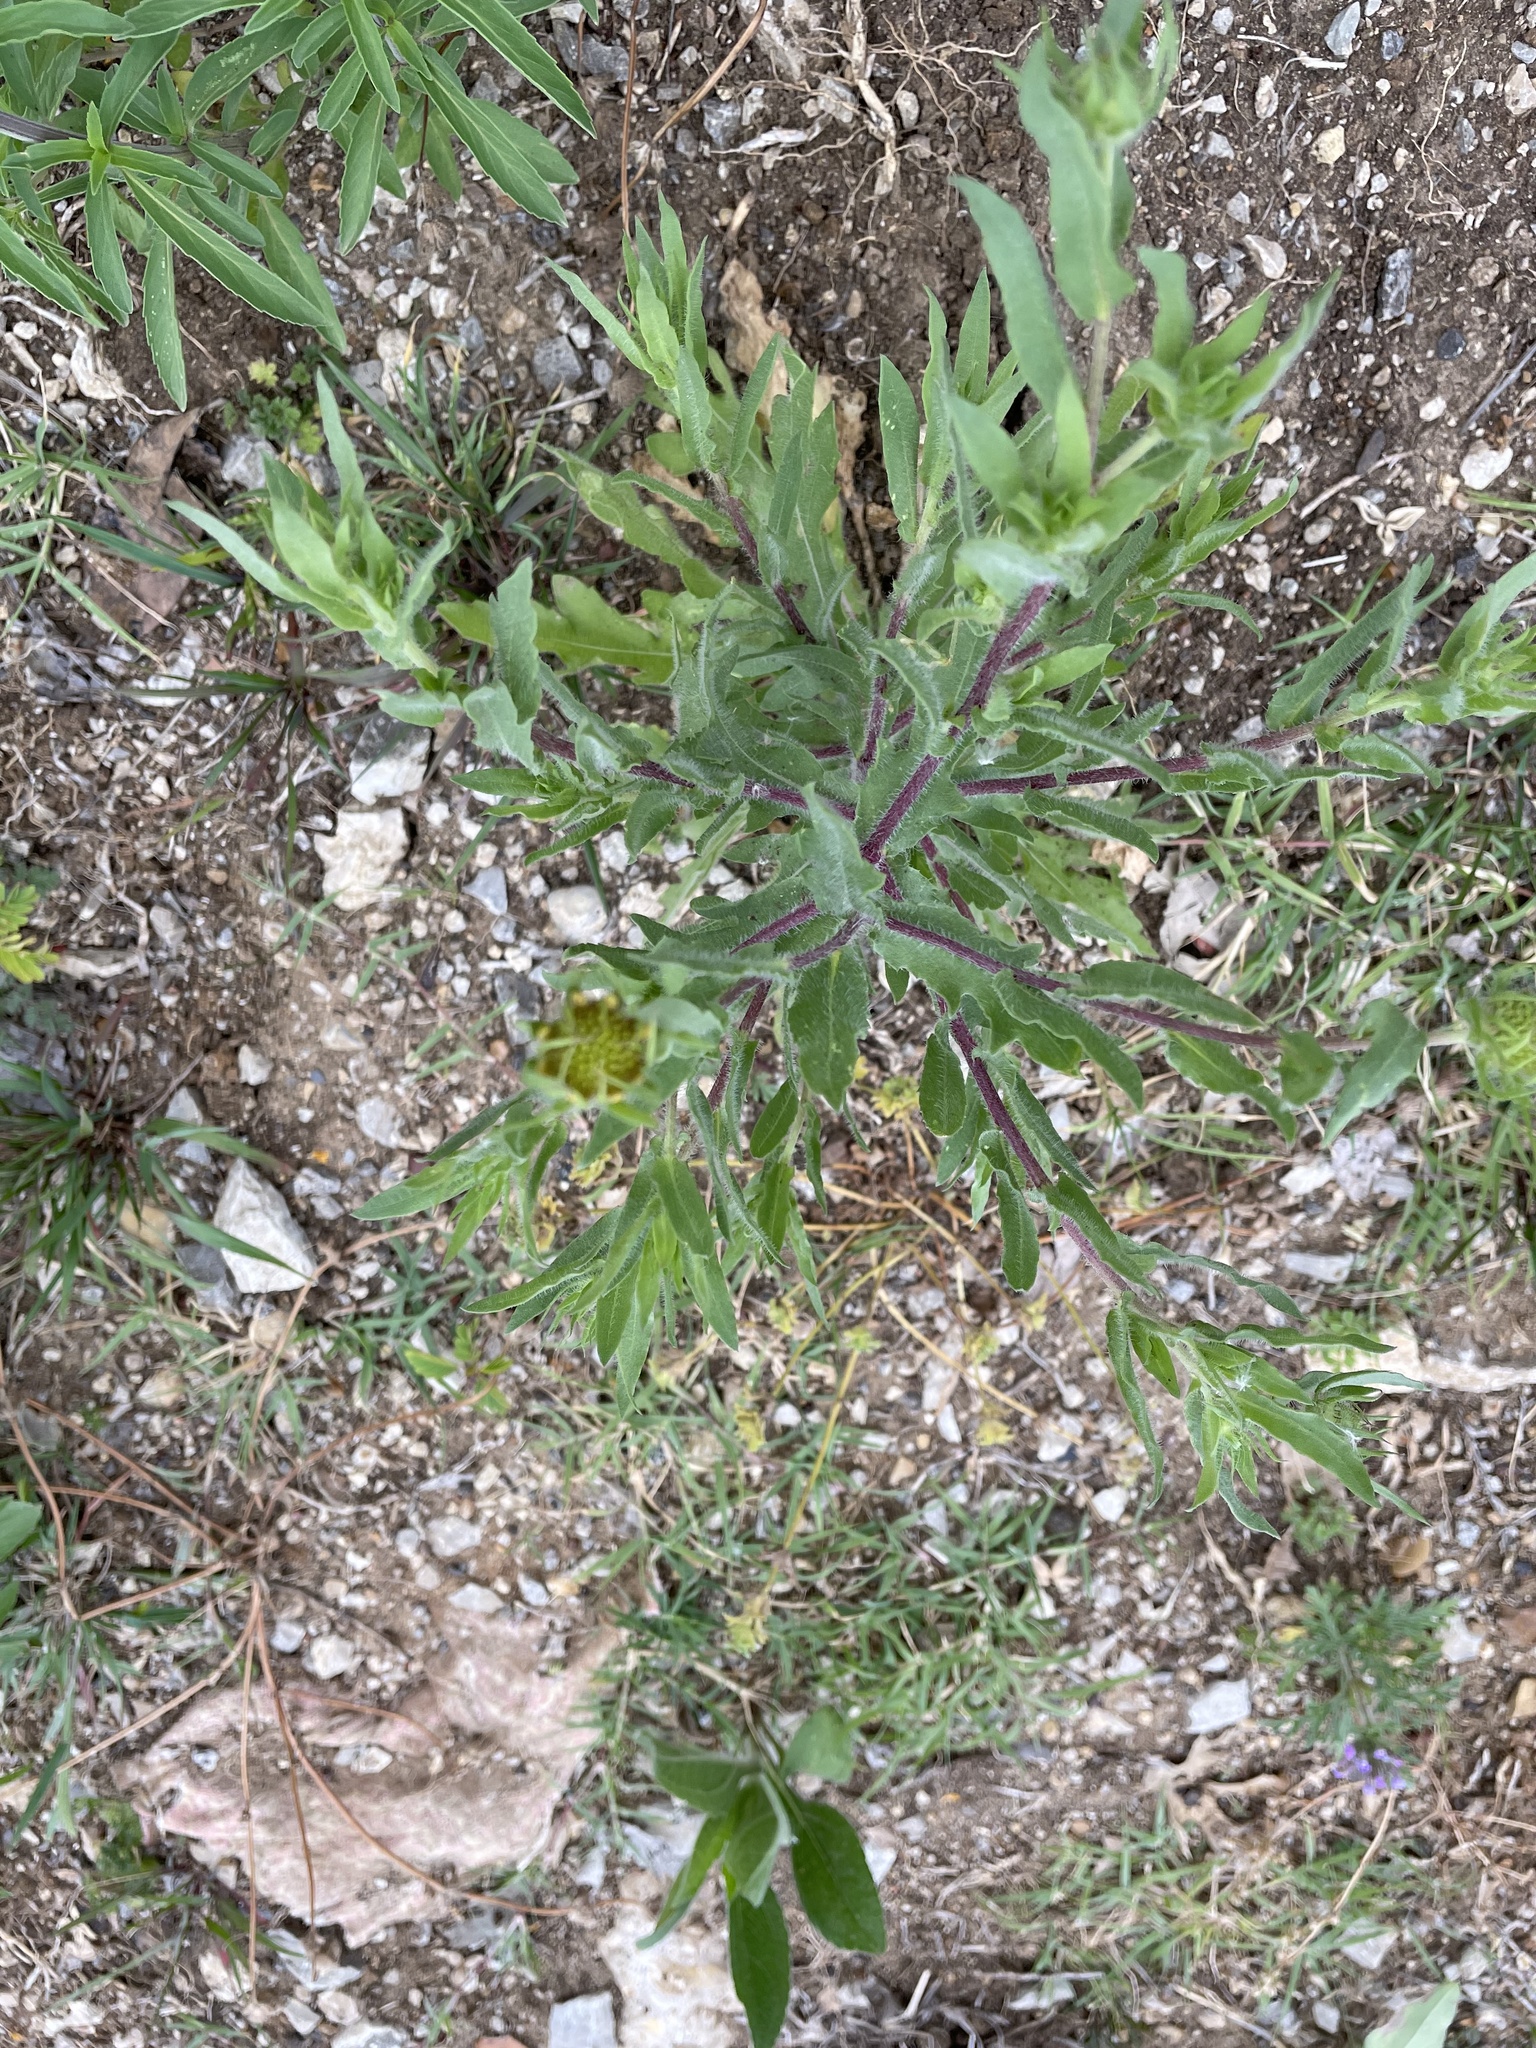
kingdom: Plantae
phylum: Tracheophyta
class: Magnoliopsida
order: Asterales
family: Asteraceae
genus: Gaillardia
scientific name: Gaillardia pulchella
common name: Firewheel
